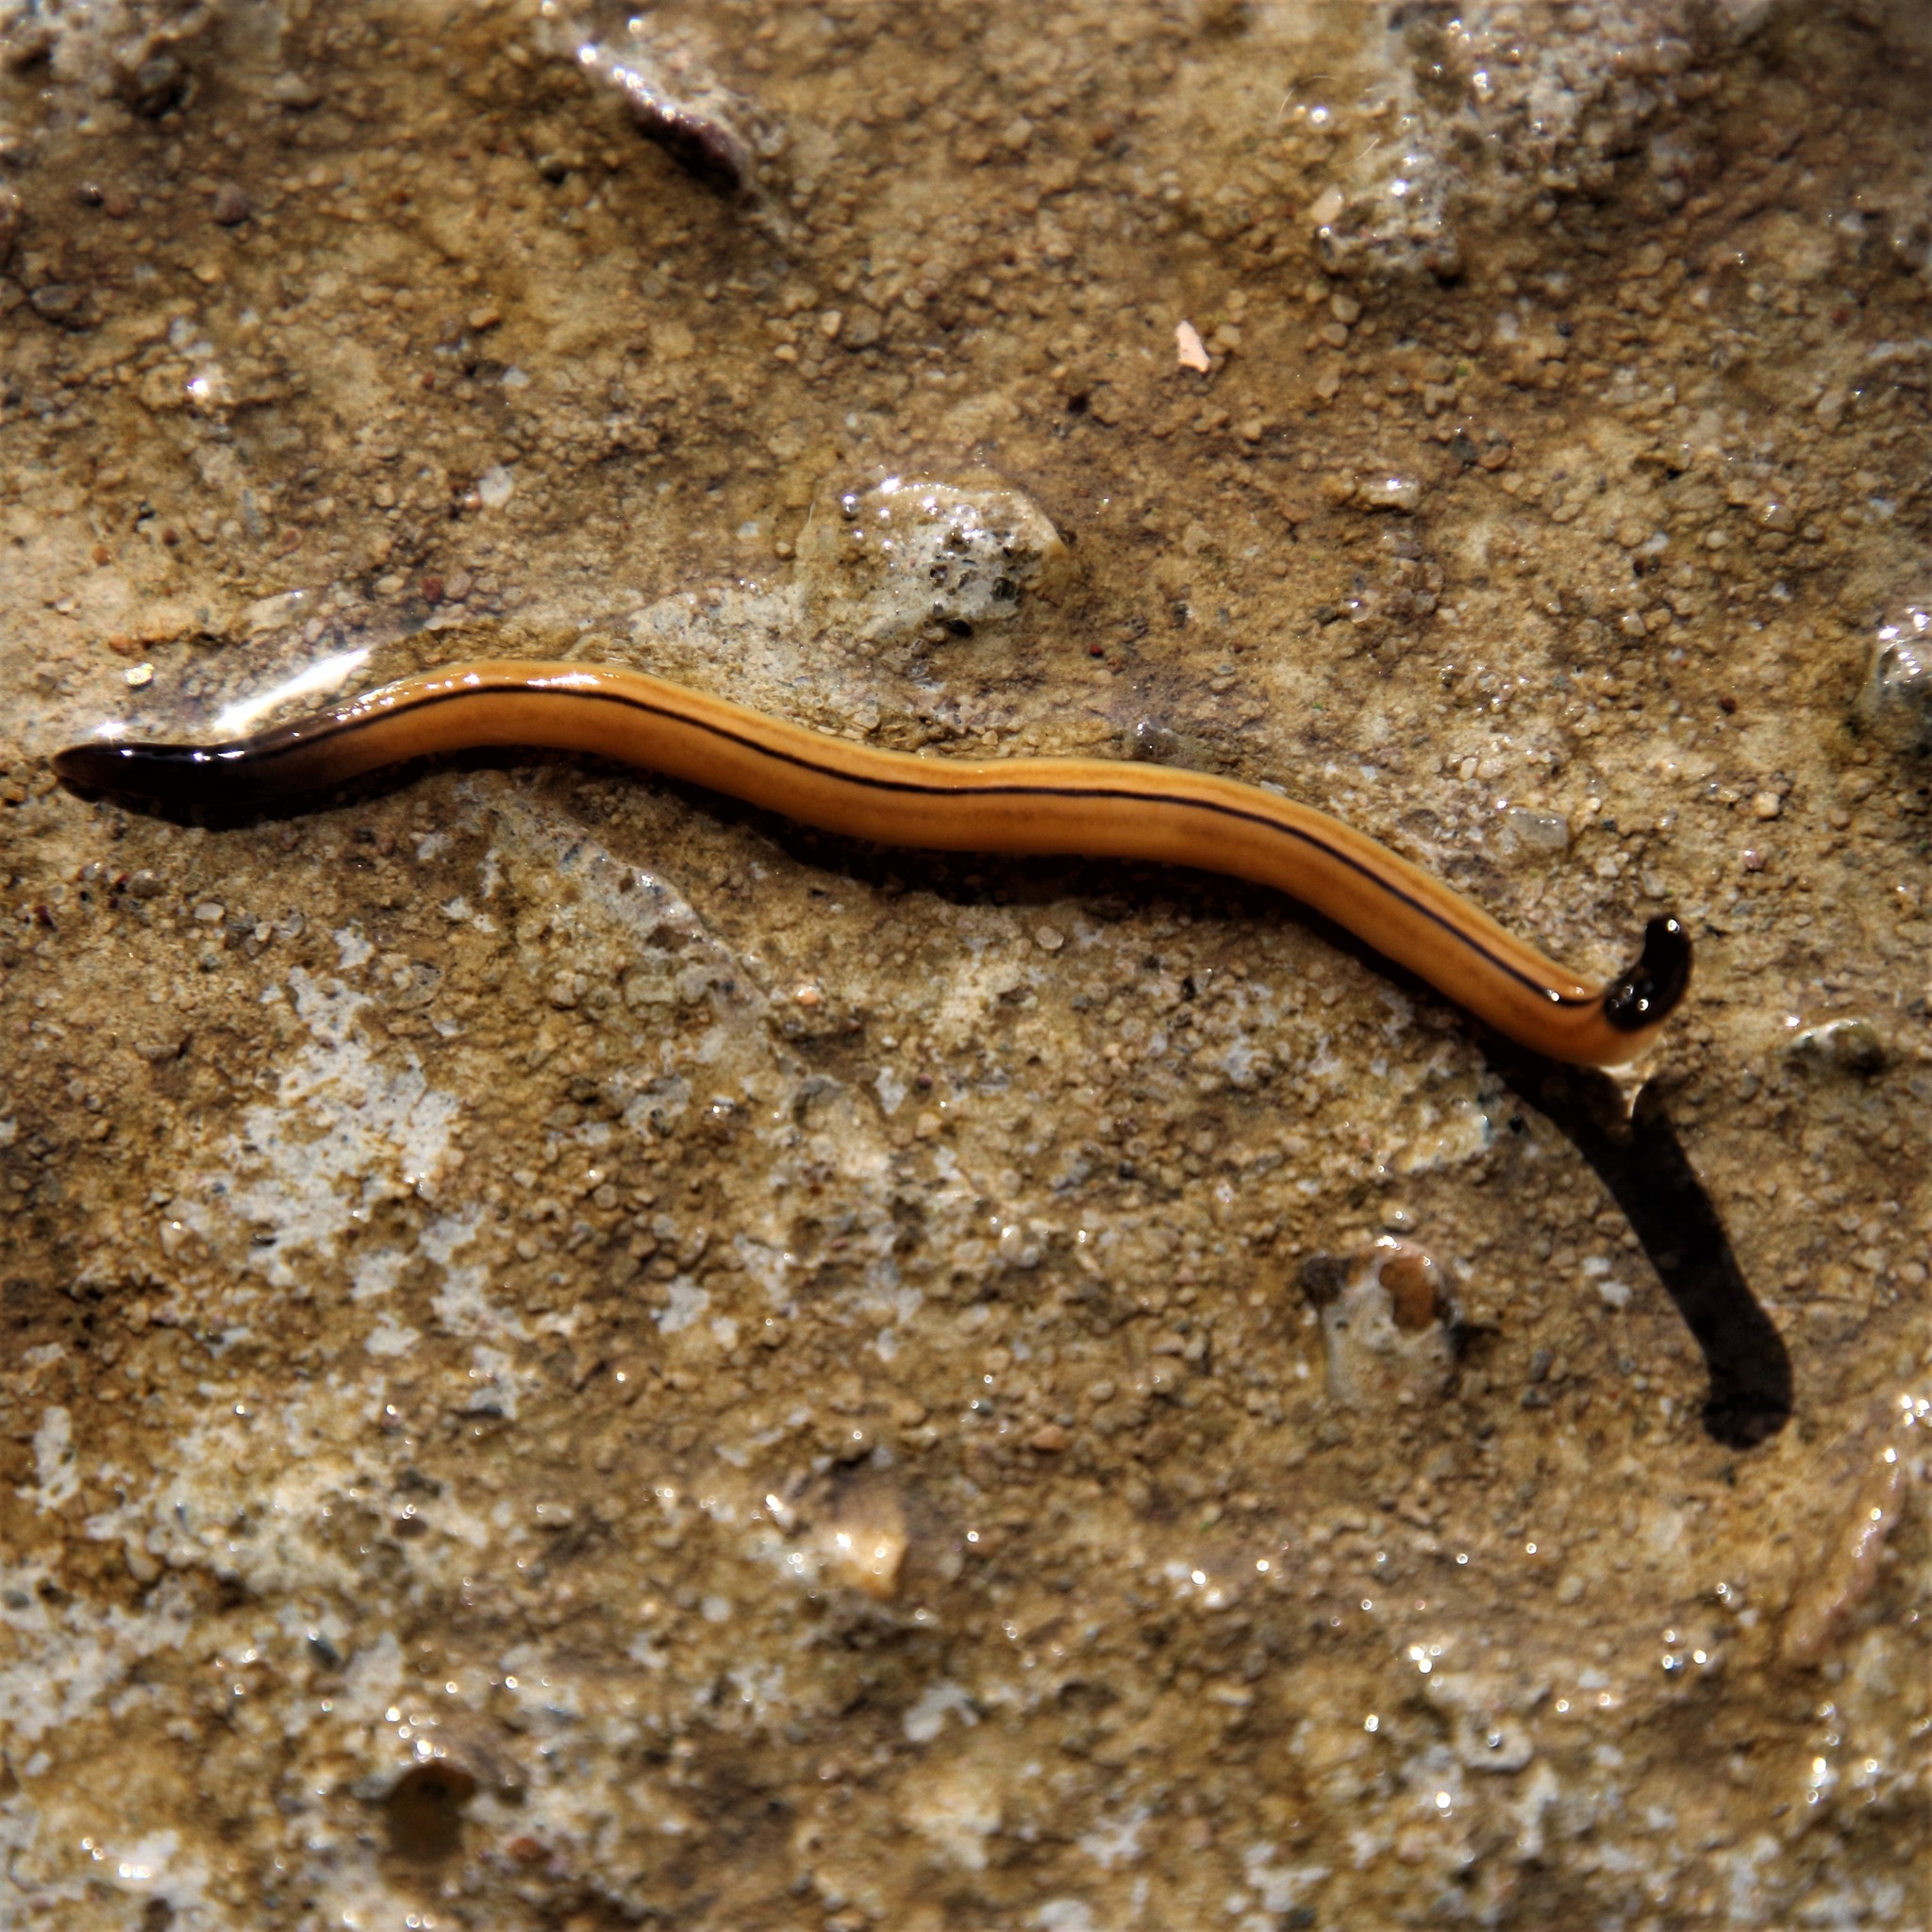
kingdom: Animalia
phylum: Platyhelminthes
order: Tricladida
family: Geoplanidae
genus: Bipalium
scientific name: Bipalium vagum
